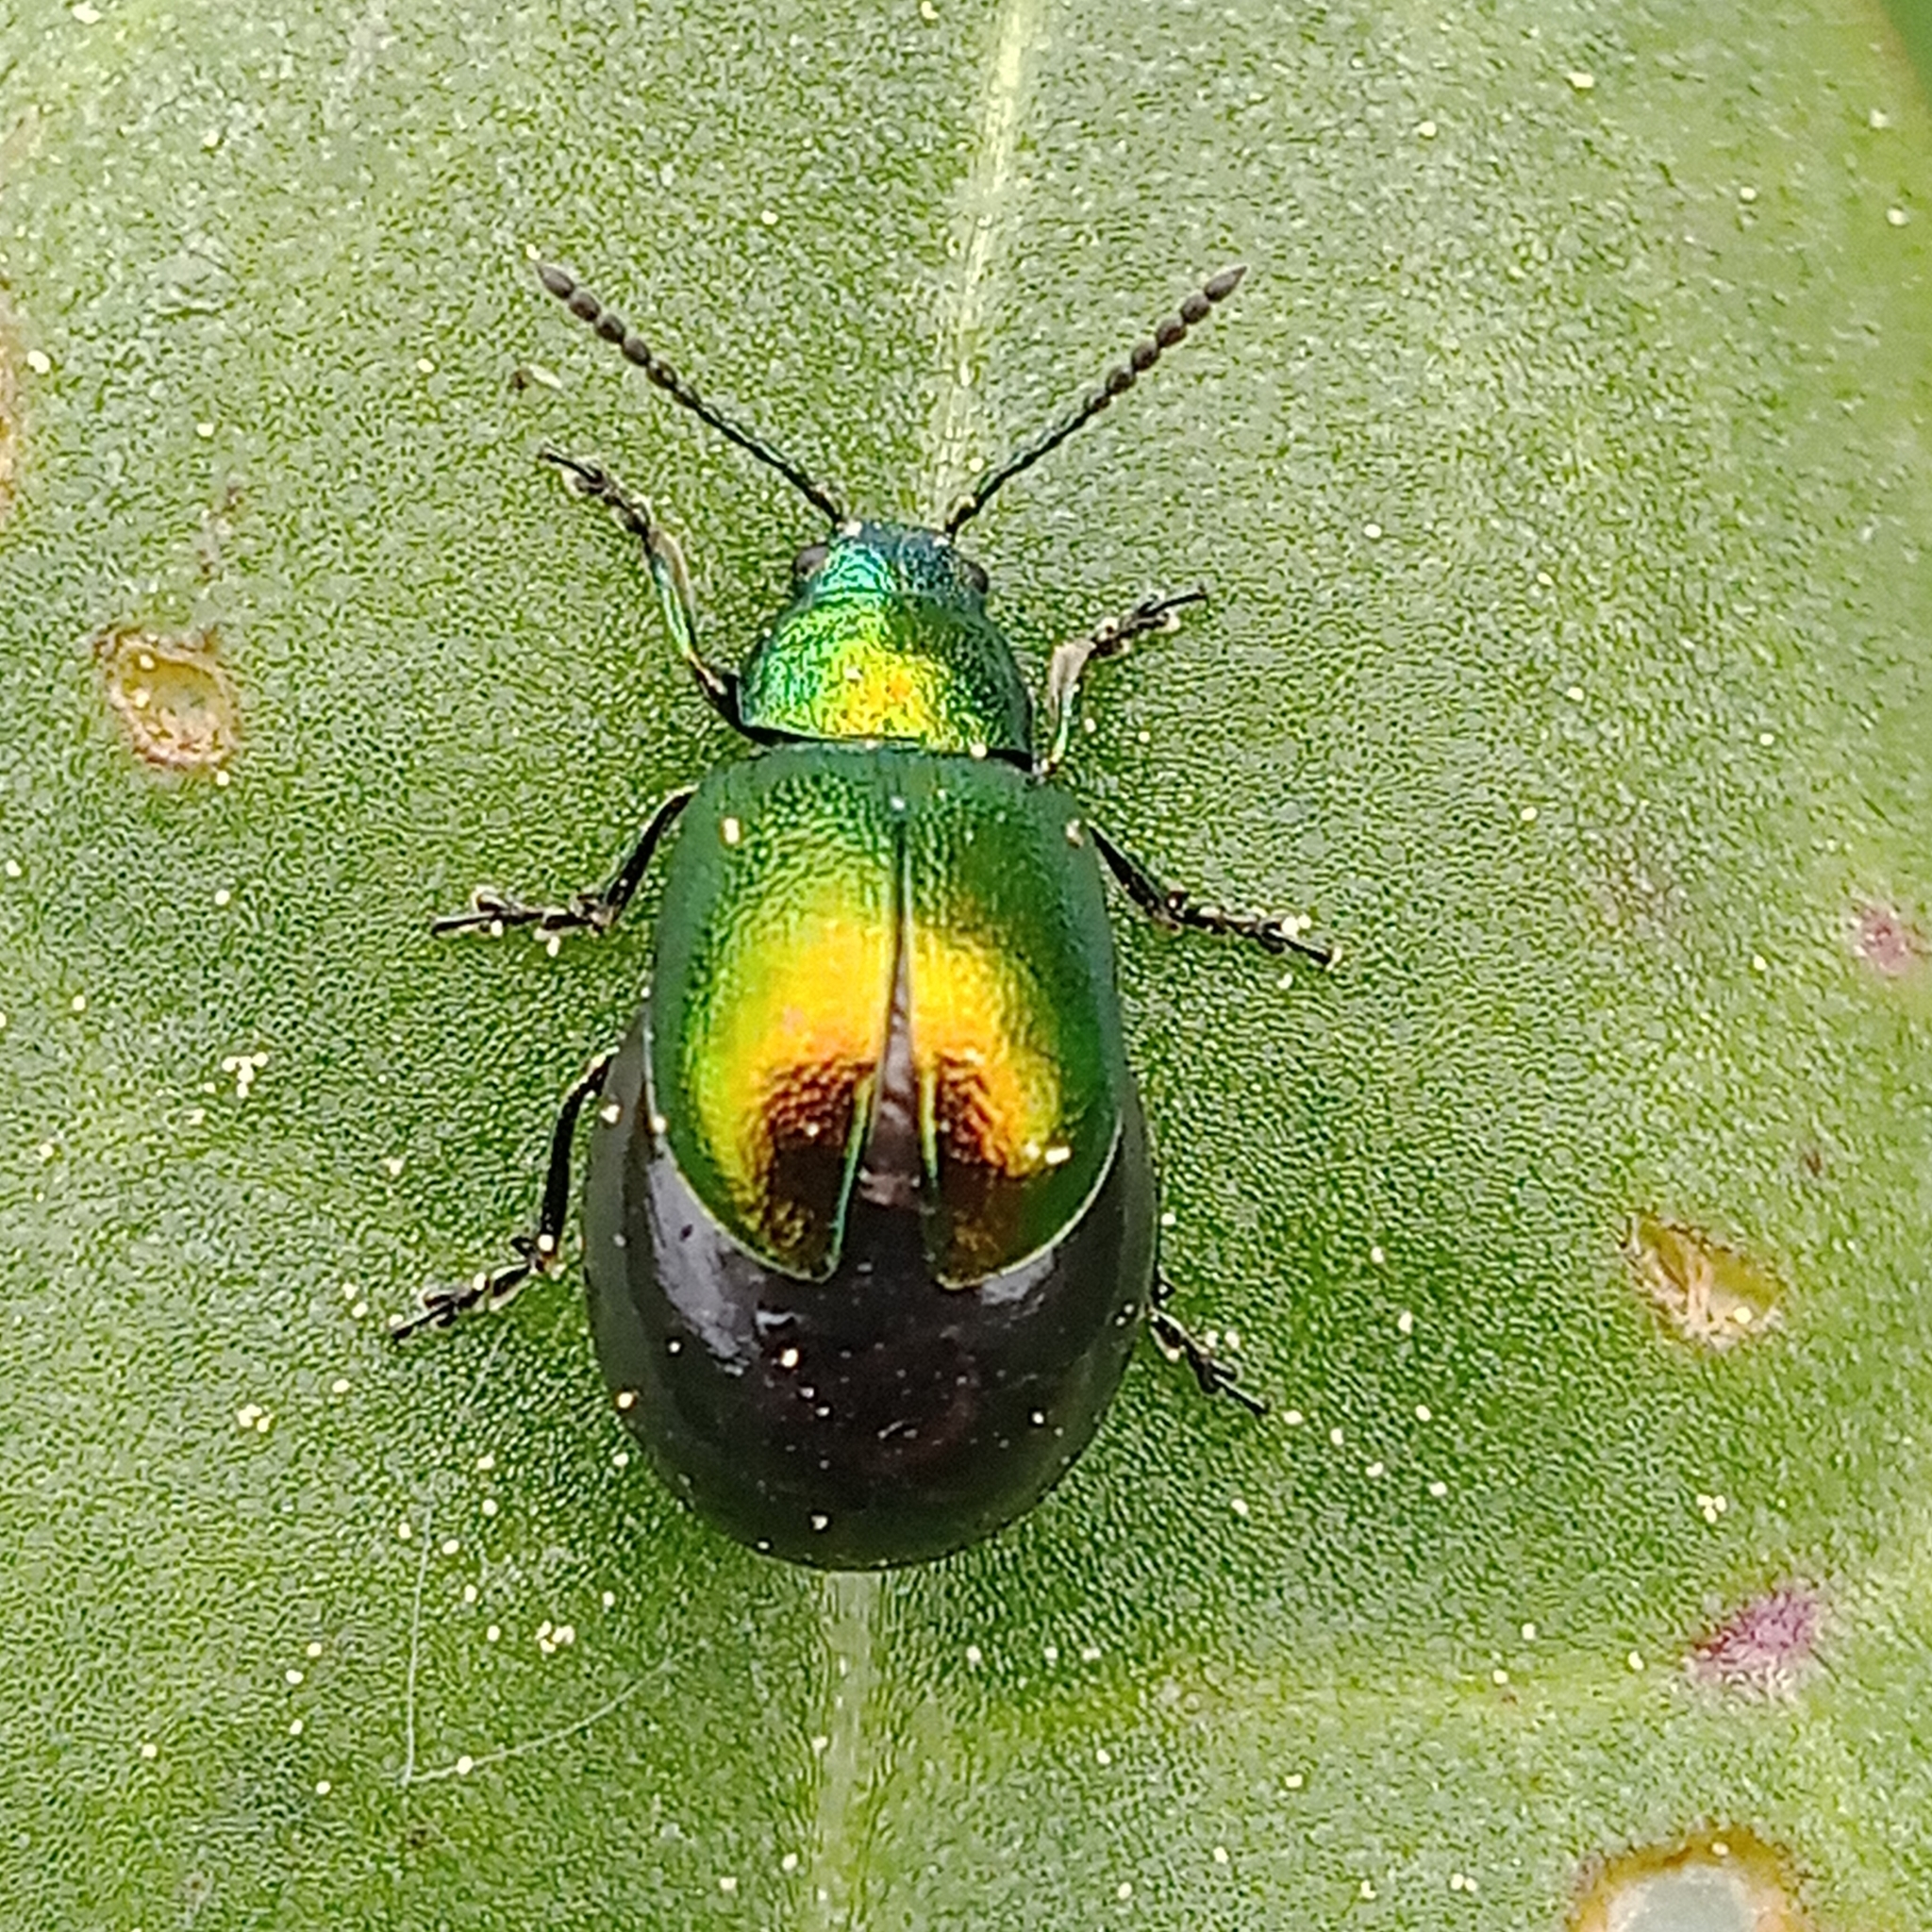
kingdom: Animalia
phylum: Arthropoda
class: Insecta
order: Coleoptera
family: Chrysomelidae
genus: Gastrophysa
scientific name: Gastrophysa viridula
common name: Green dock beetle
